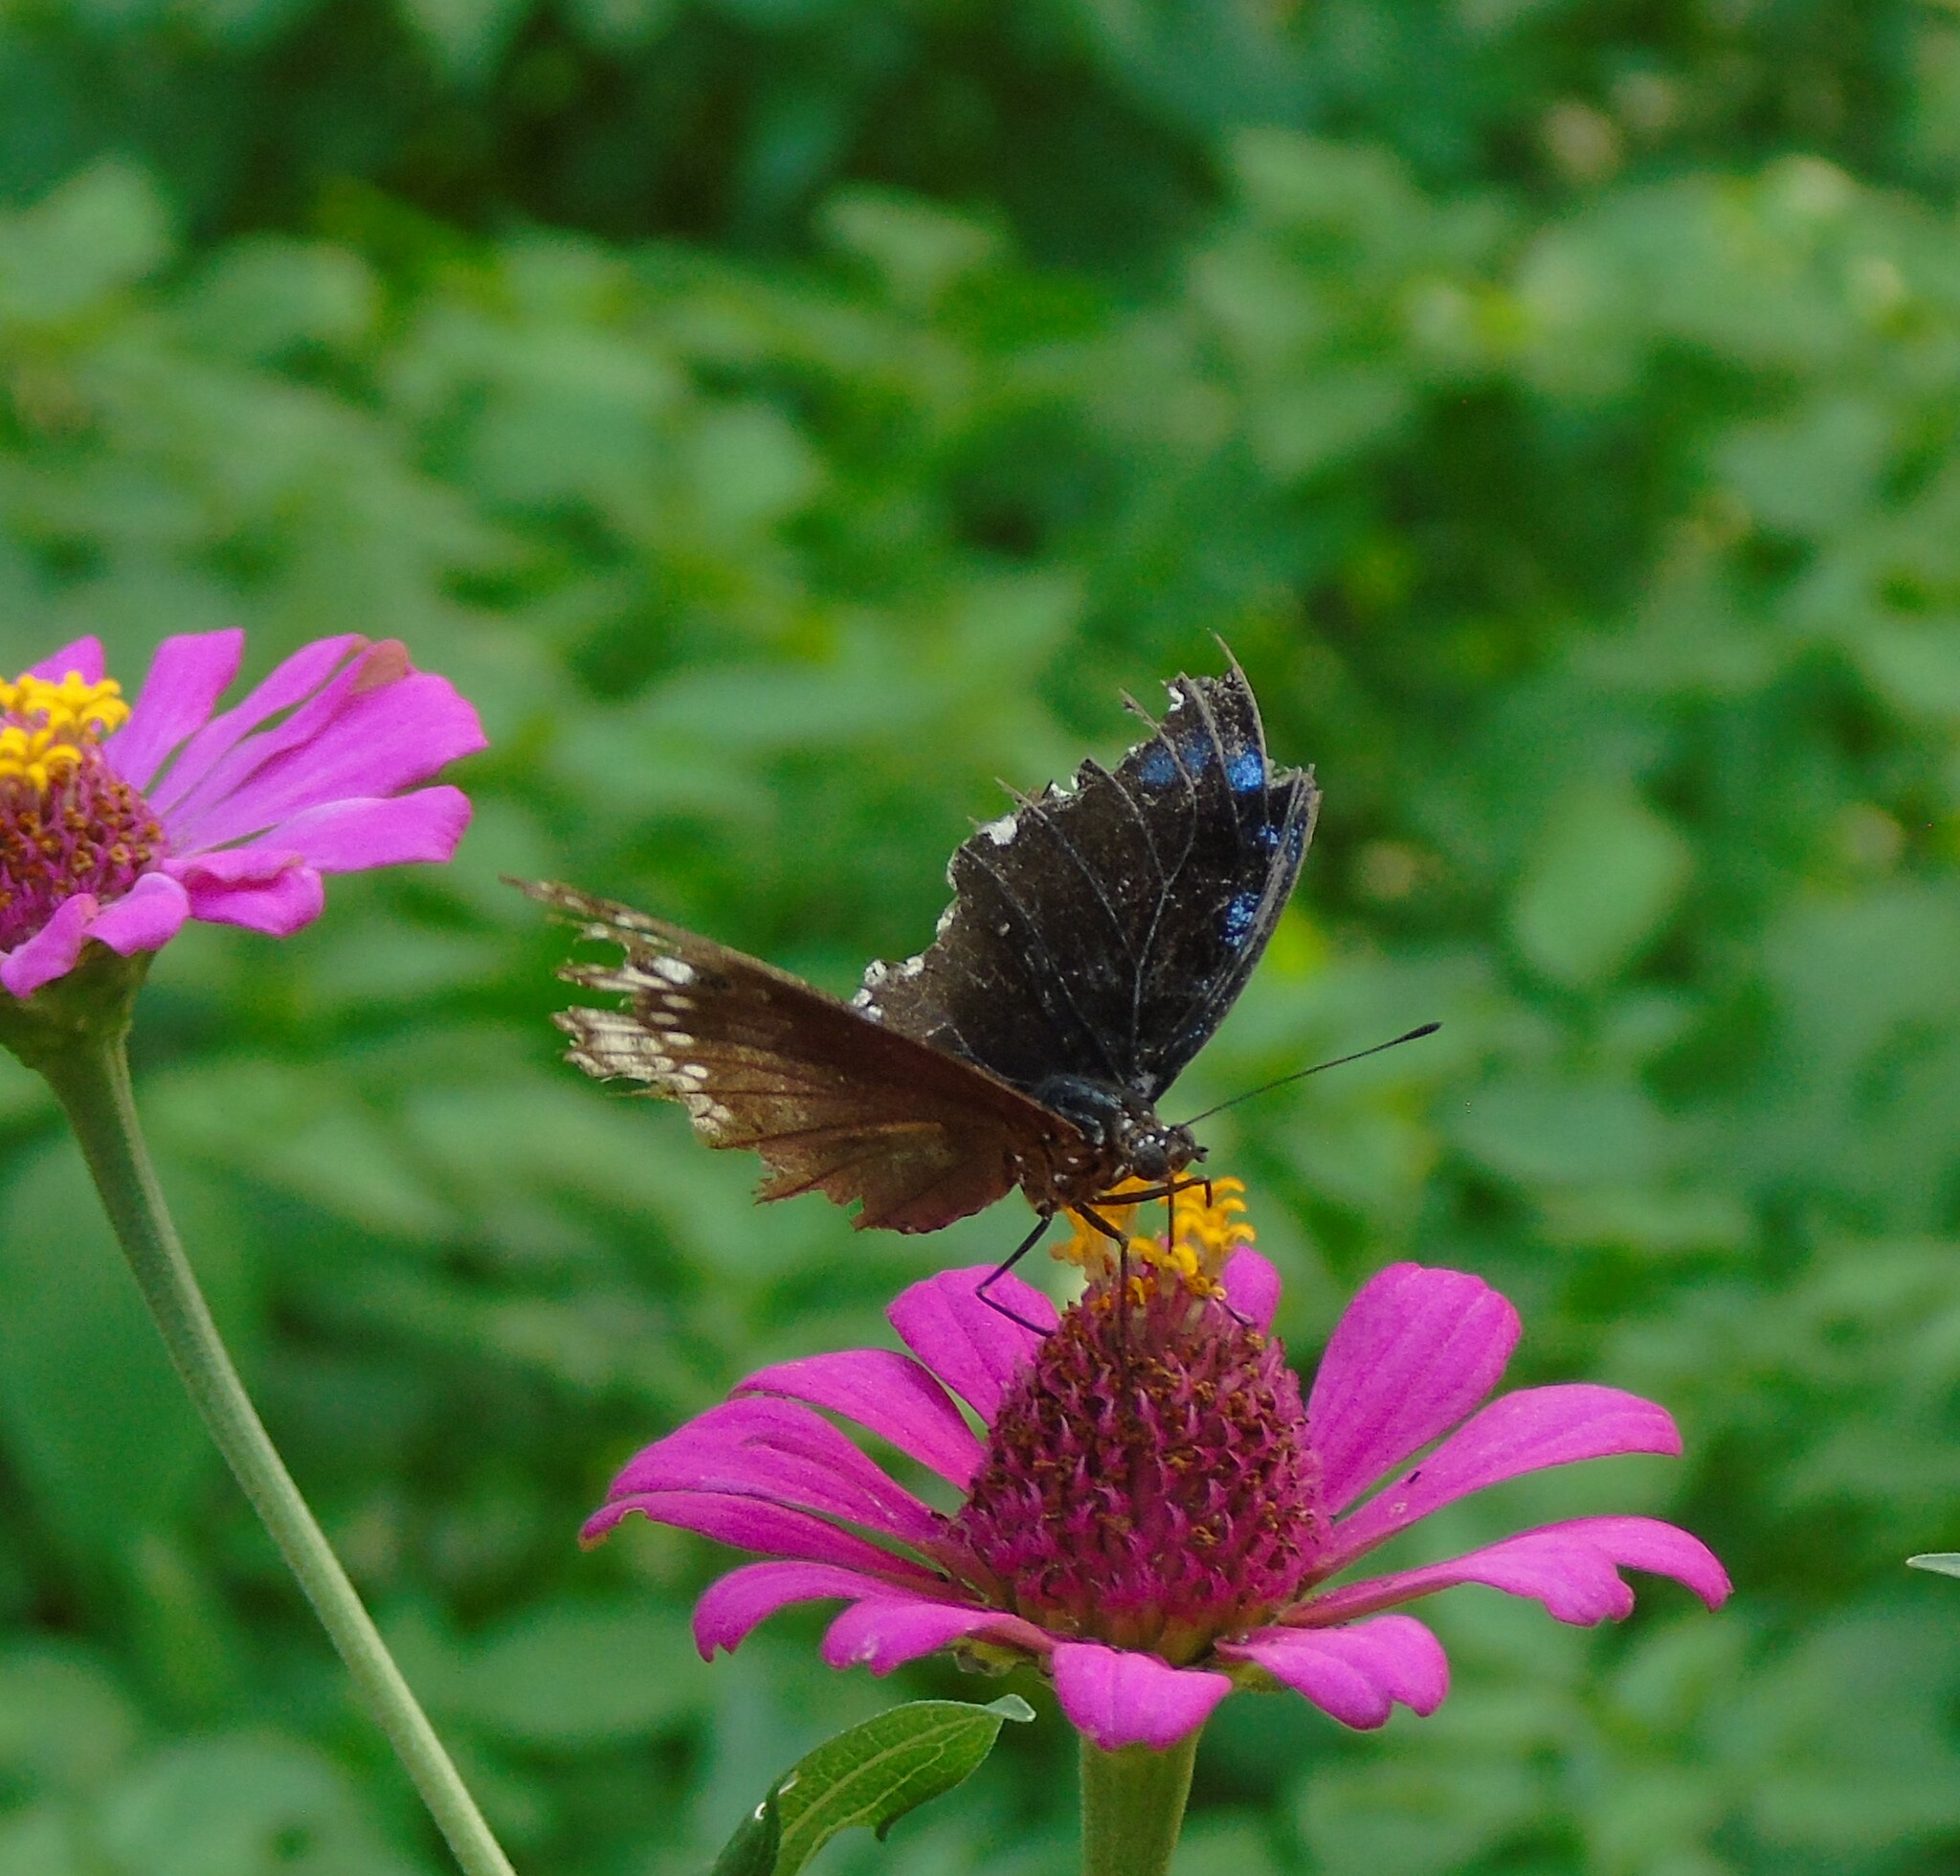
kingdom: Animalia
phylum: Arthropoda
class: Insecta
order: Lepidoptera
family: Nymphalidae
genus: Hypolimnas
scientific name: Hypolimnas bolina
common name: Great eggfly
